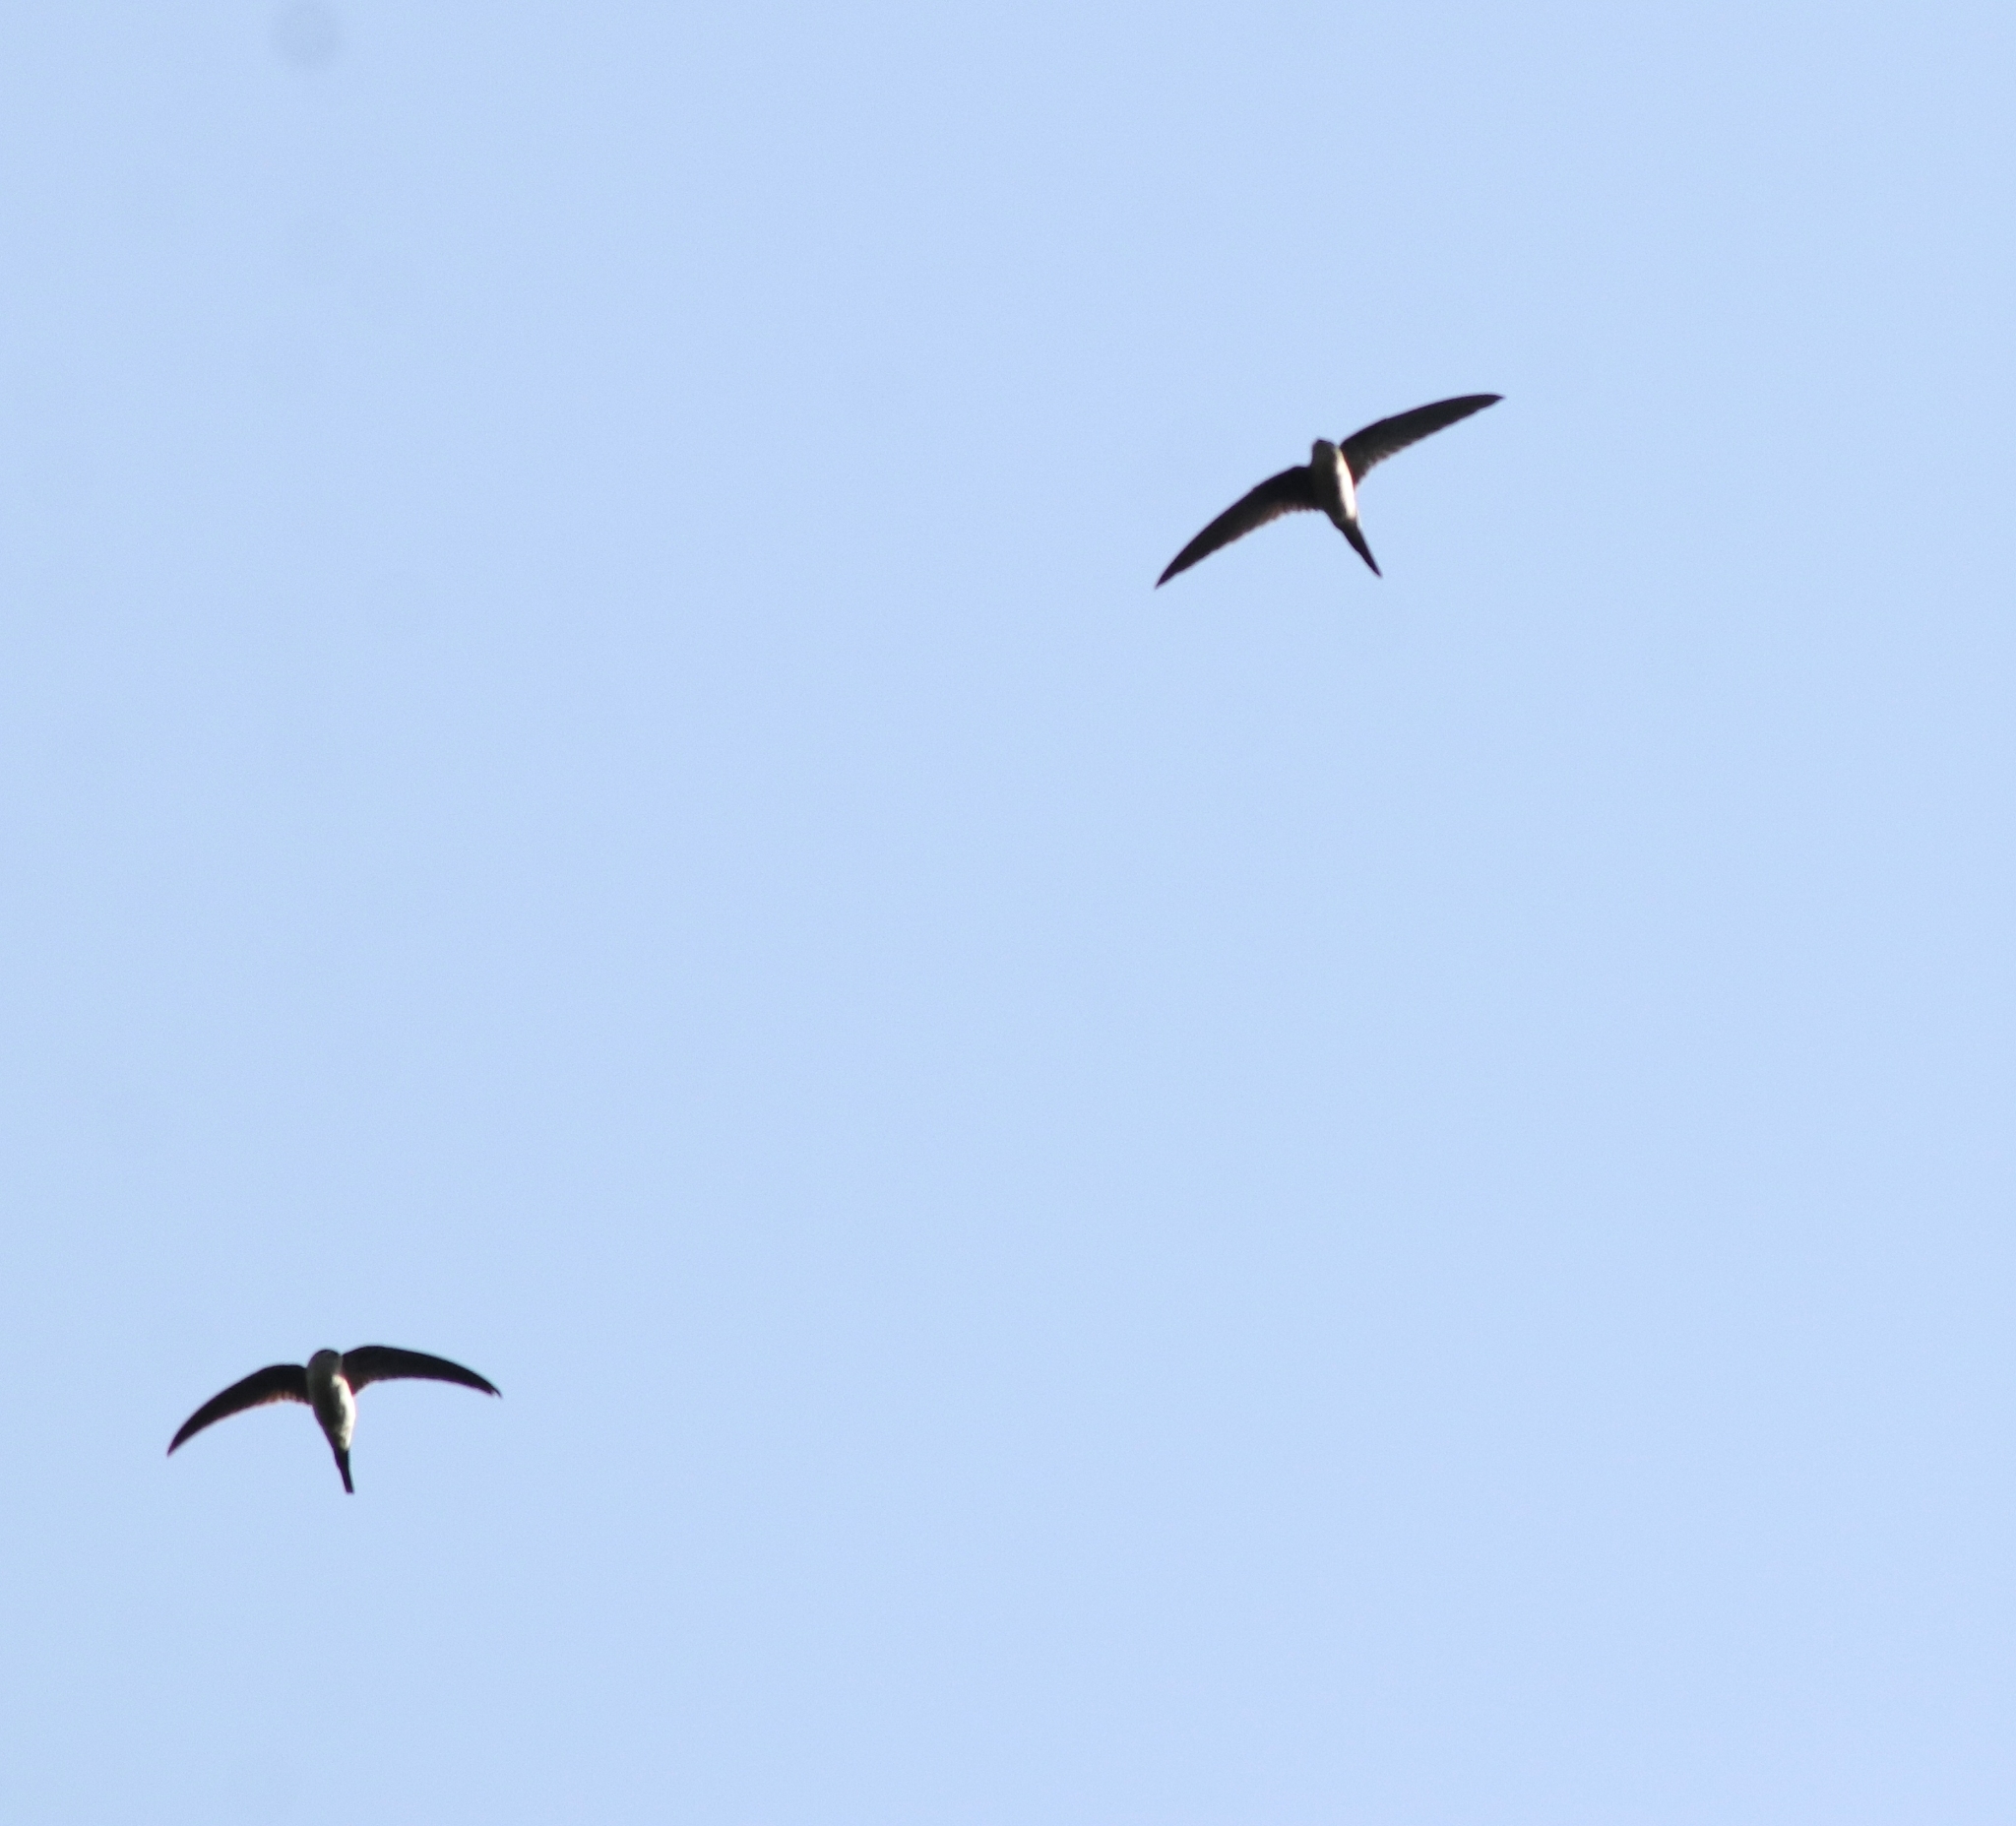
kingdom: Animalia
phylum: Chordata
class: Aves
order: Apodiformes
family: Apodidae
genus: Cypsiurus
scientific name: Cypsiurus balasiensis
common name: Asian palm swift
